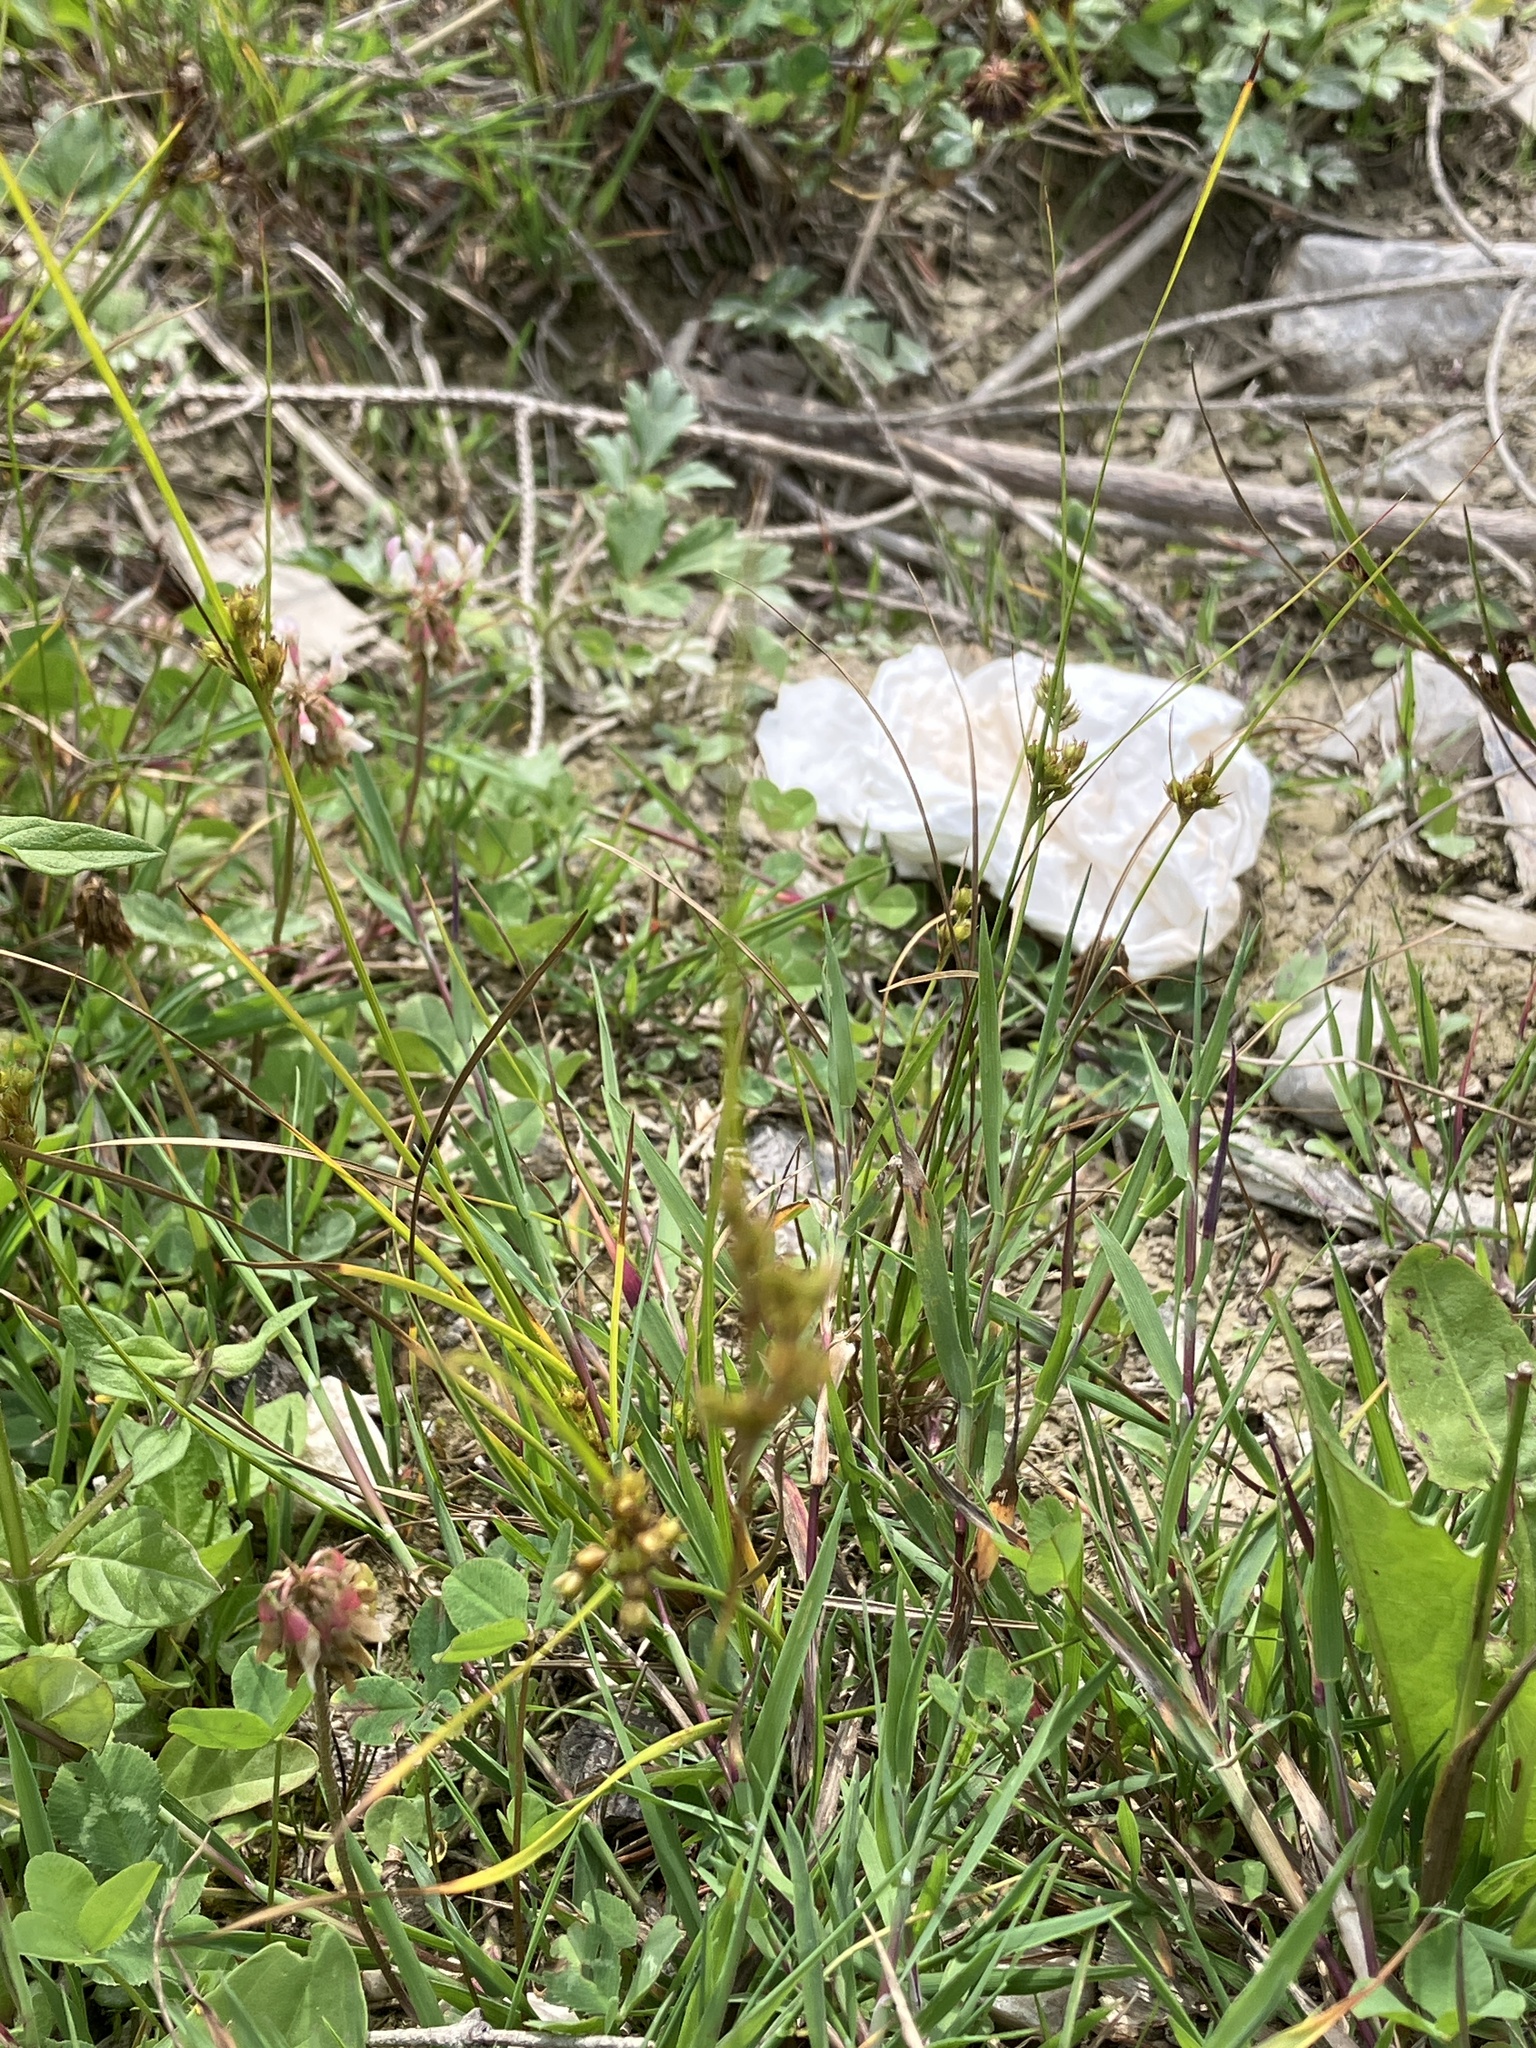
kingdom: Plantae
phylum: Tracheophyta
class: Liliopsida
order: Poales
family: Juncaceae
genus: Juncus
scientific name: Juncus tenuis
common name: Slender rush
